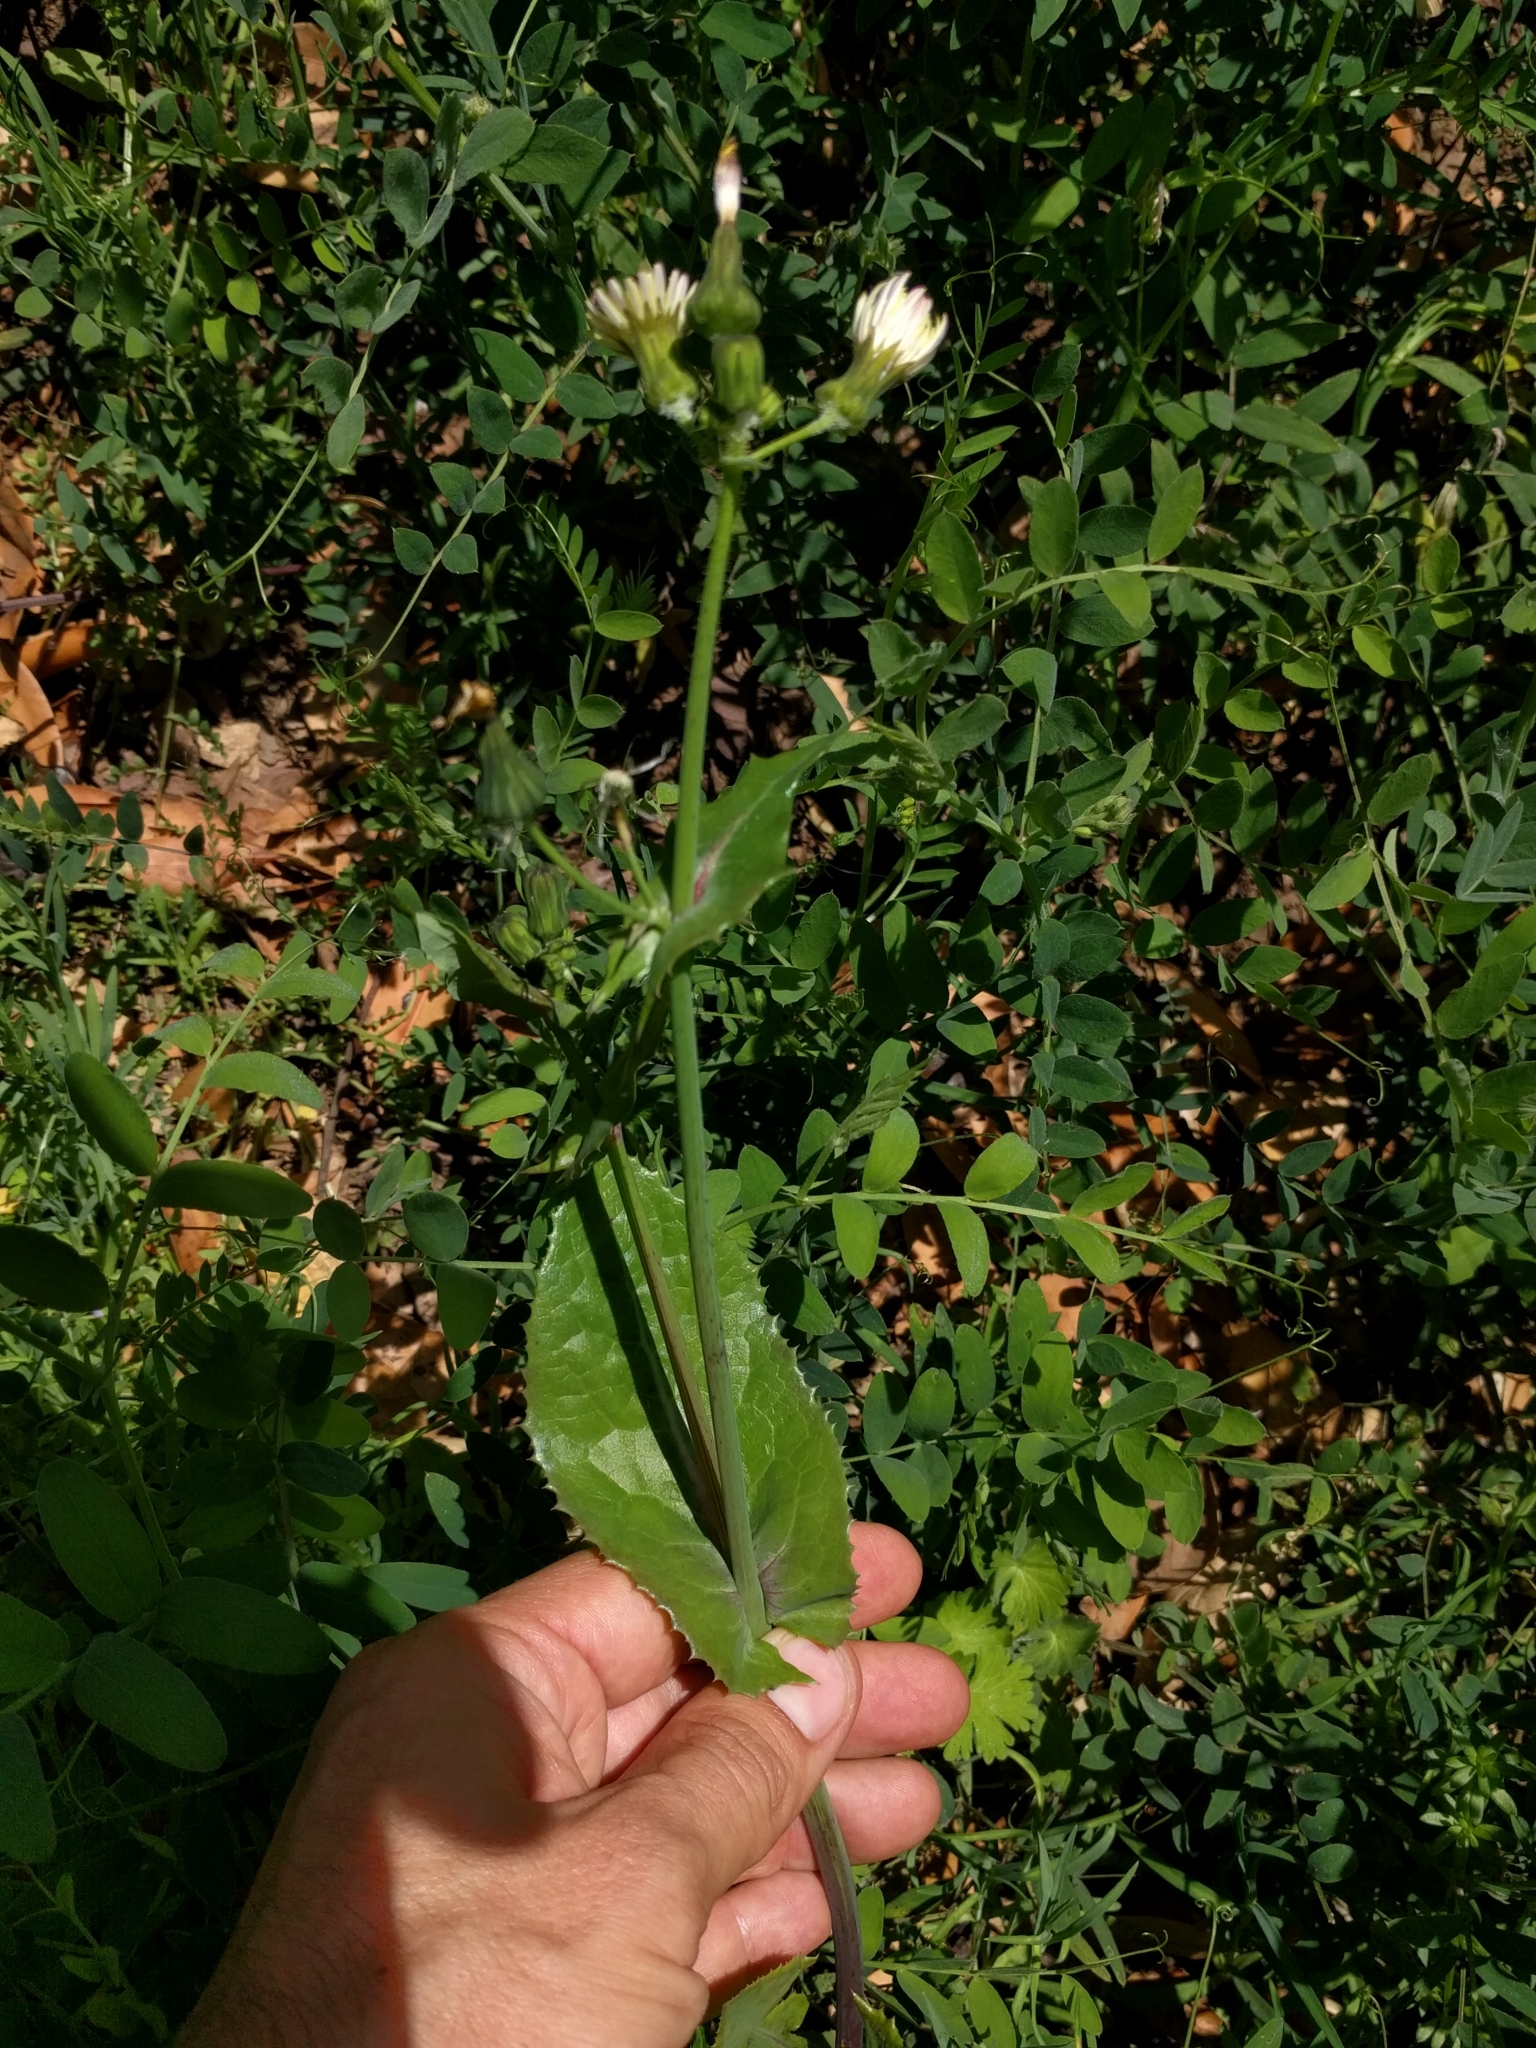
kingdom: Plantae
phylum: Tracheophyta
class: Magnoliopsida
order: Asterales
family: Asteraceae
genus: Sonchus
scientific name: Sonchus oleraceus
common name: Common sowthistle
